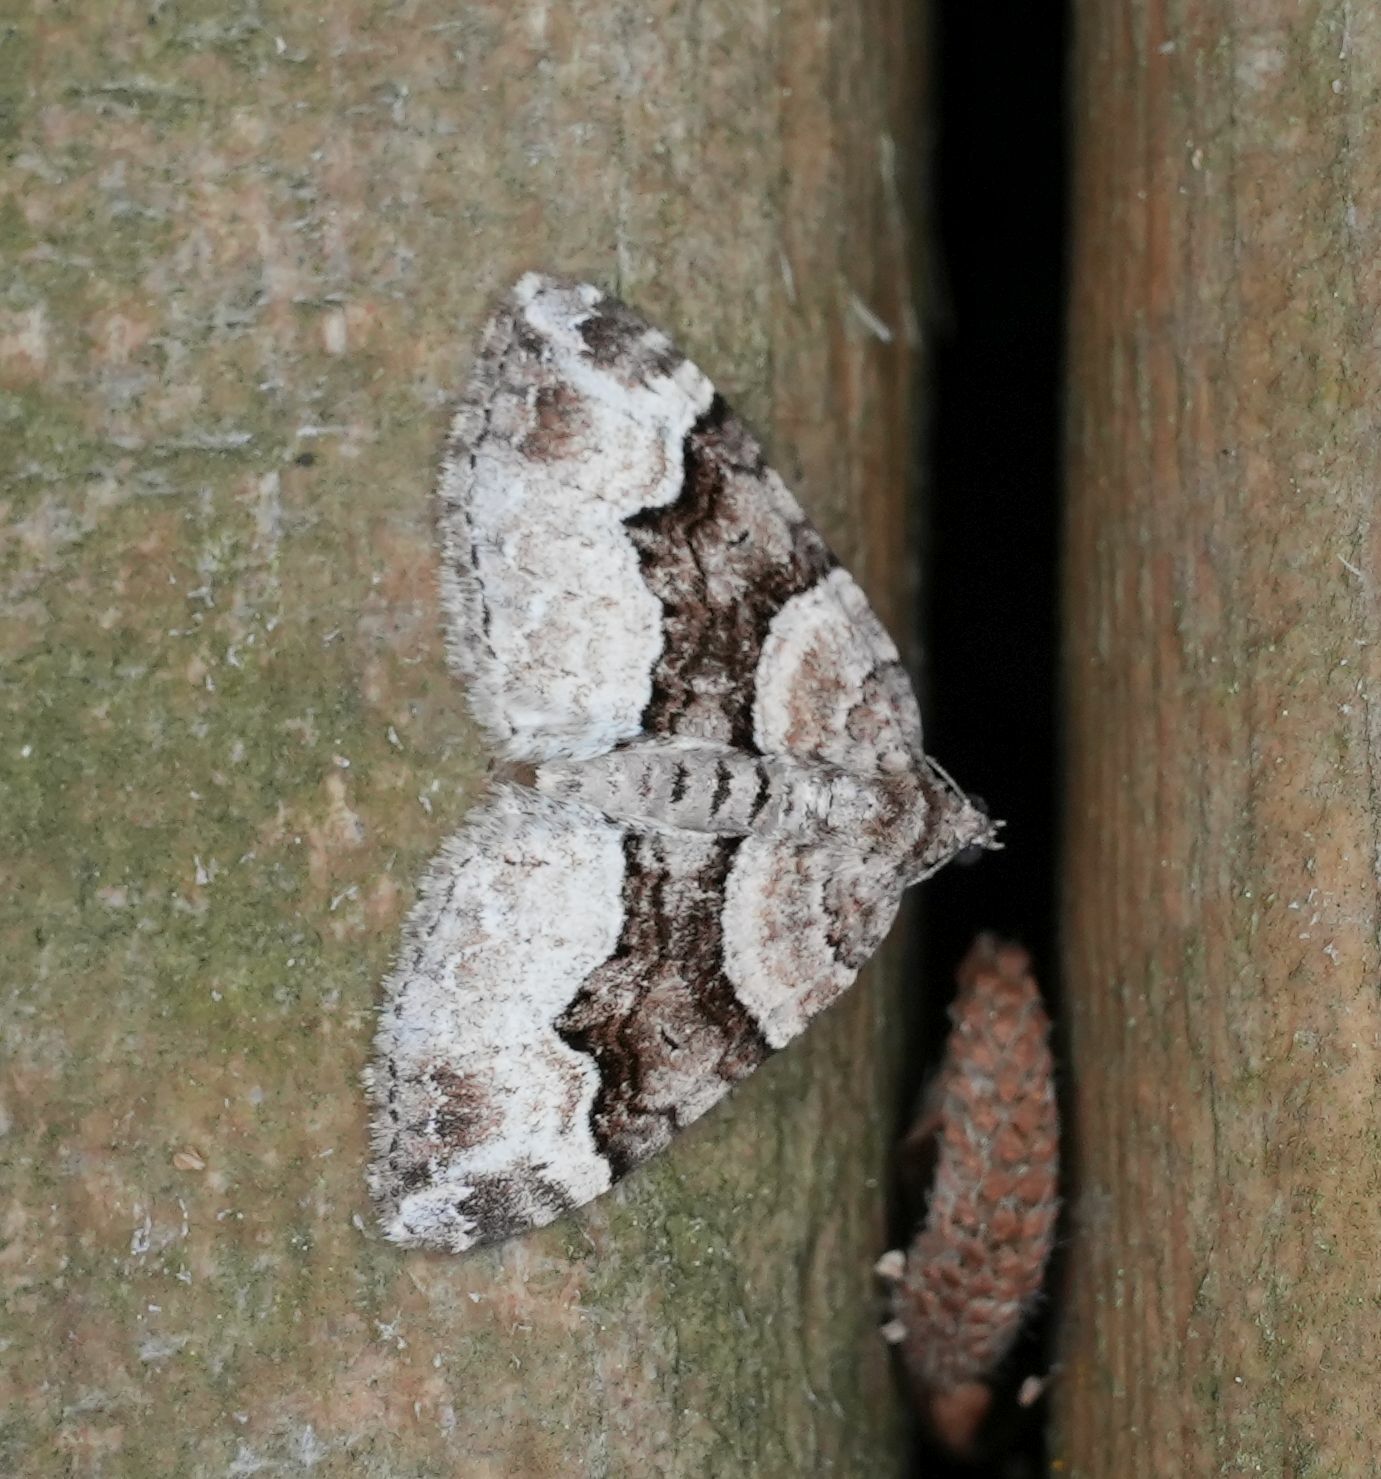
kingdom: Animalia
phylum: Arthropoda
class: Insecta
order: Lepidoptera
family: Geometridae
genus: Xanthorhoe
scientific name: Xanthorhoe lacustrata
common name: Toothed brown carpet
